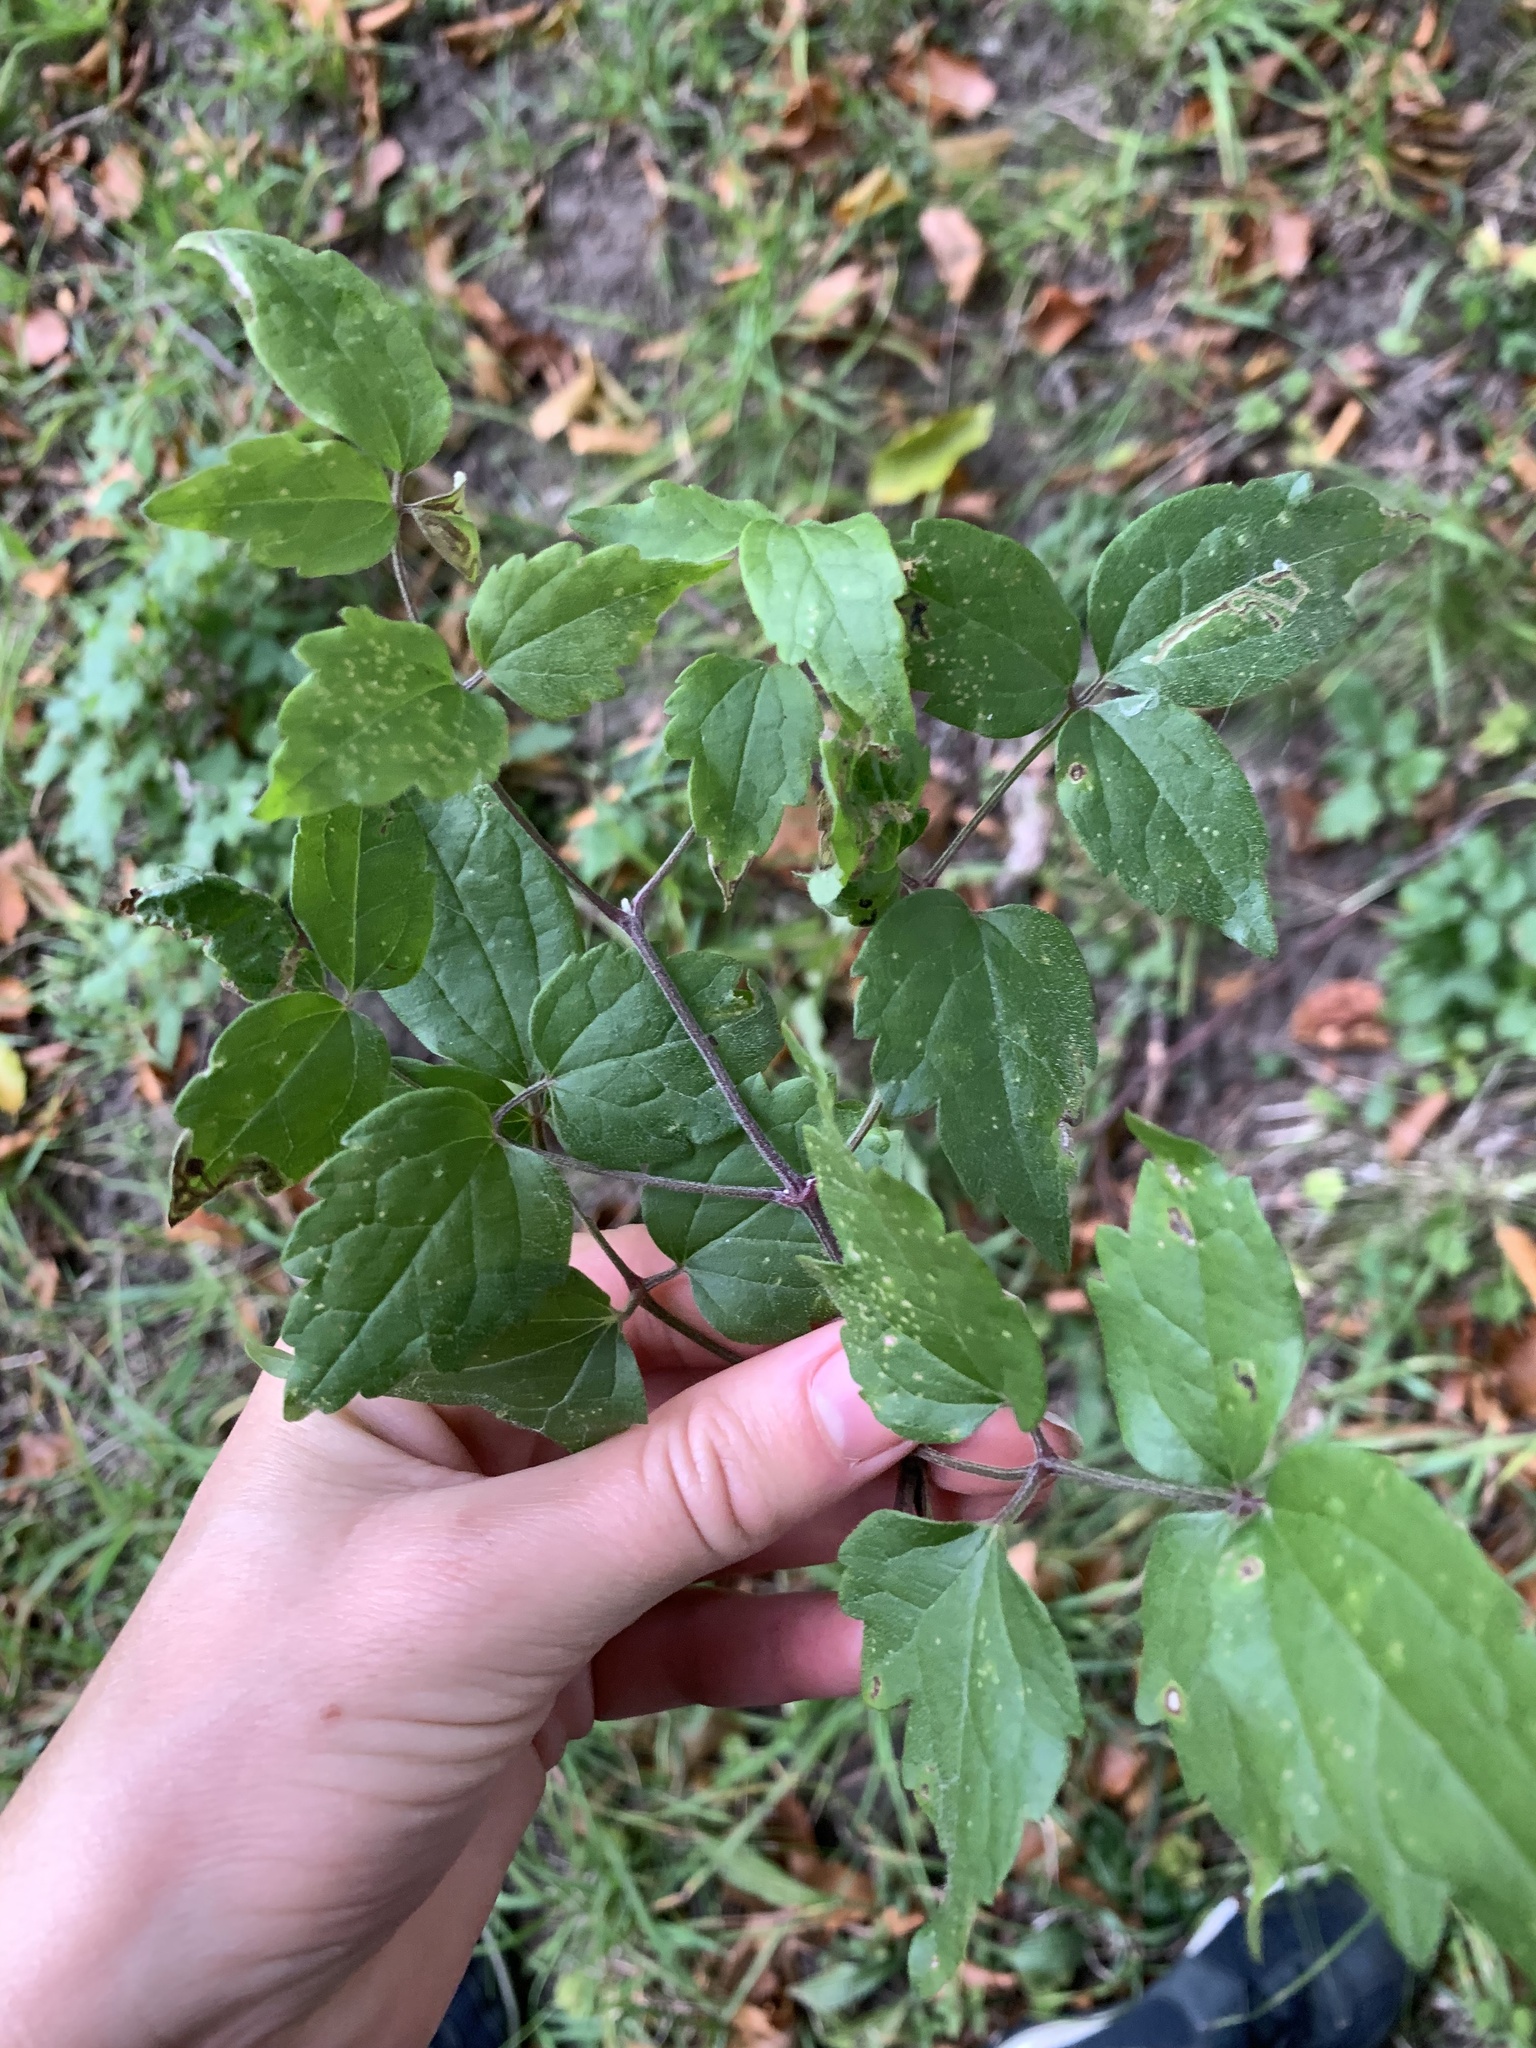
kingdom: Plantae
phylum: Tracheophyta
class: Magnoliopsida
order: Ranunculales
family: Ranunculaceae
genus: Clematis
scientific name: Clematis vitalba
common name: Evergreen clematis
